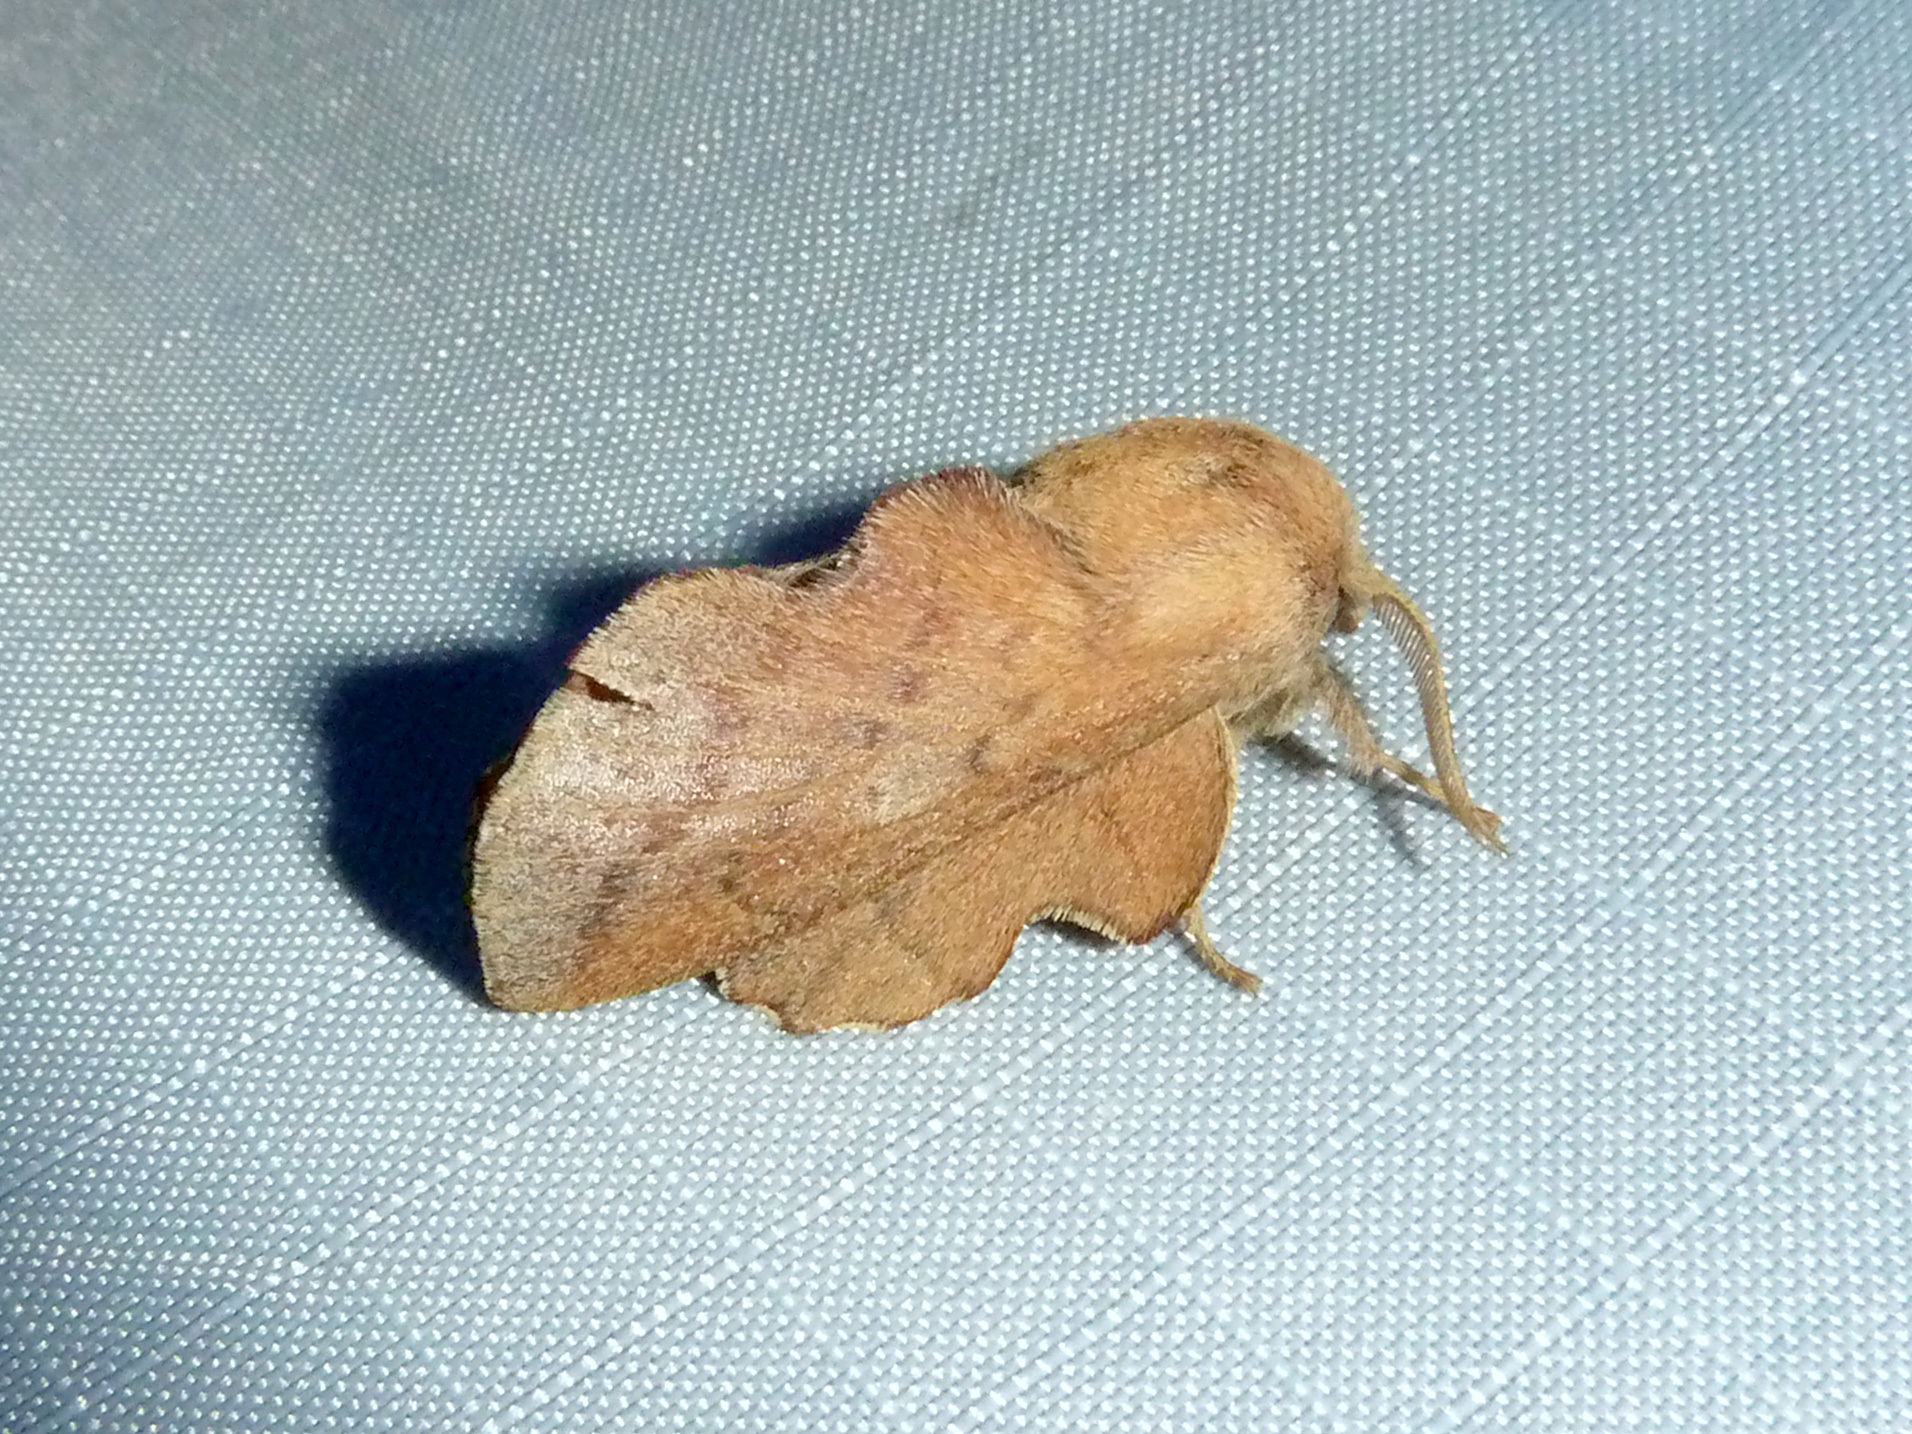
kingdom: Animalia
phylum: Arthropoda
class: Insecta
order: Lepidoptera
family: Lasiocampidae
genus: Phyllodesma
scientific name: Phyllodesma americana
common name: American lappet moth
